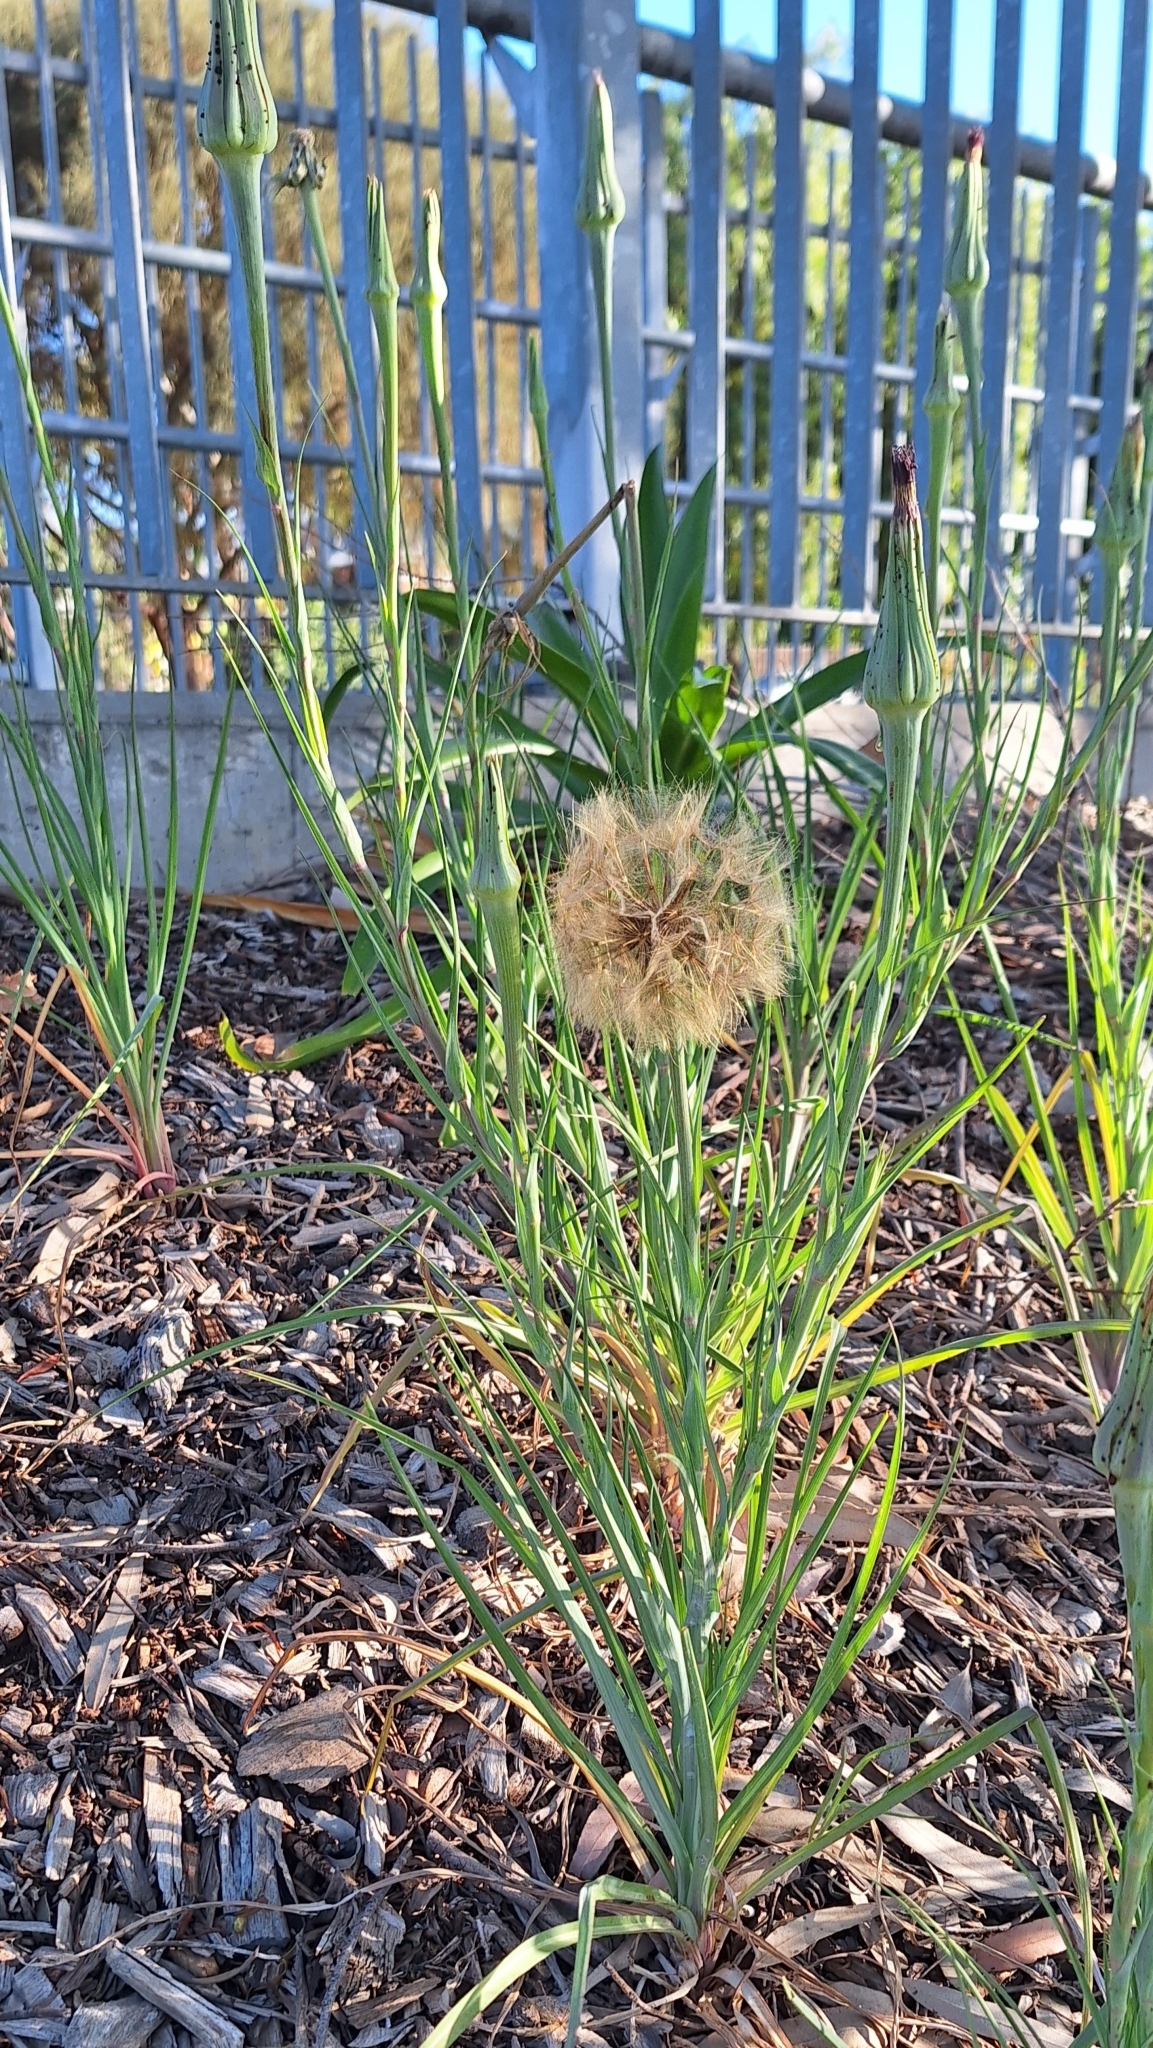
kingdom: Plantae
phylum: Tracheophyta
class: Magnoliopsida
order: Asterales
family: Asteraceae
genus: Tragopogon
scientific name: Tragopogon porrifolius
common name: Salsify
